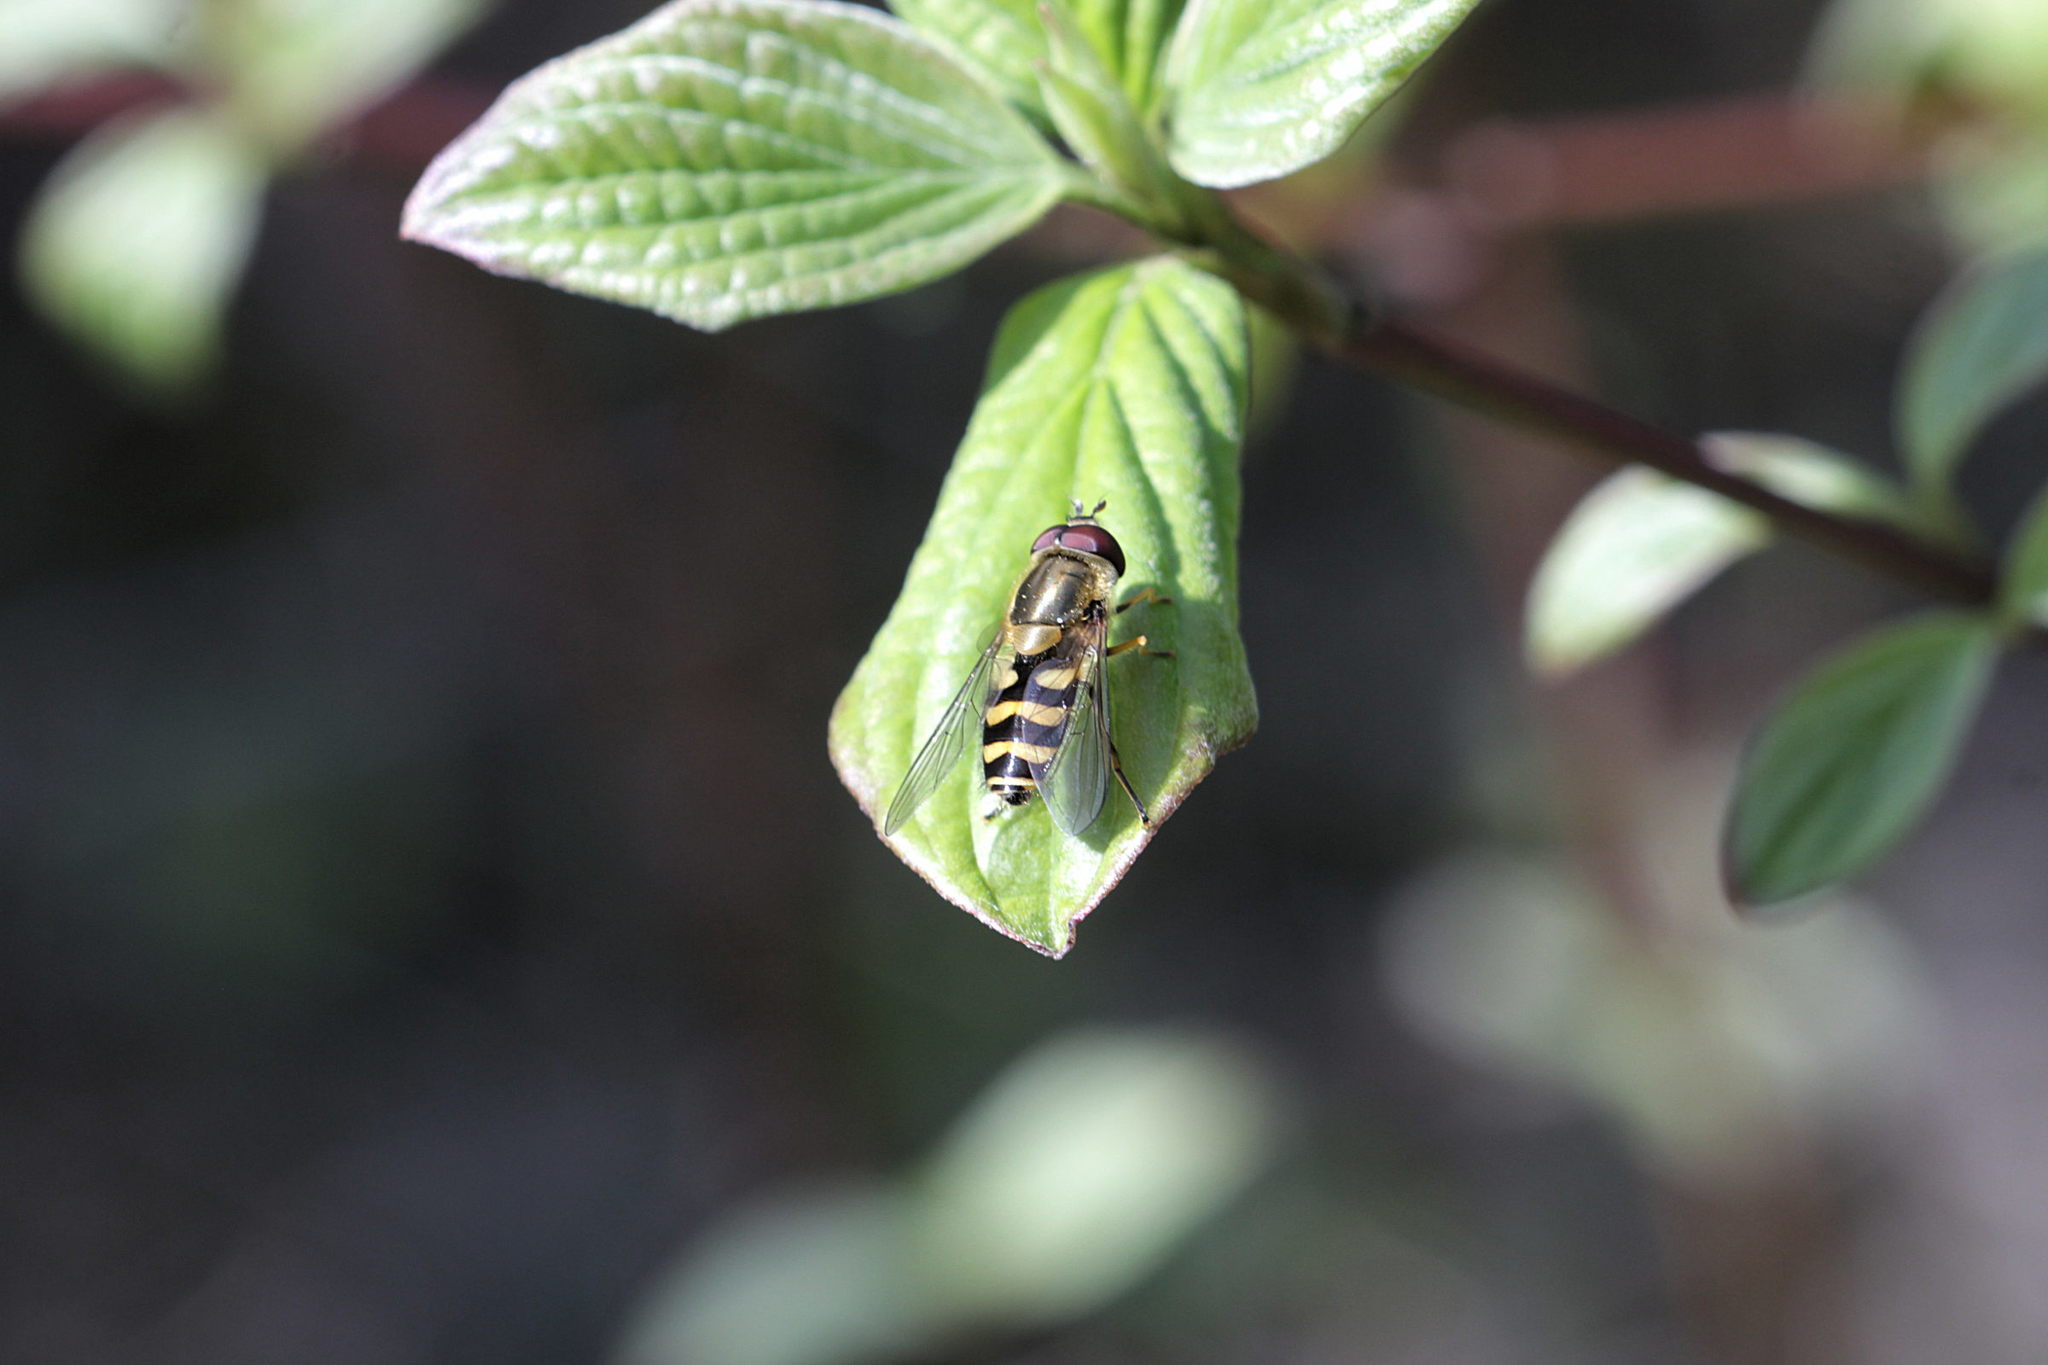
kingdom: Animalia
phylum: Arthropoda
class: Insecta
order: Diptera
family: Syrphidae
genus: Syrphus
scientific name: Syrphus
